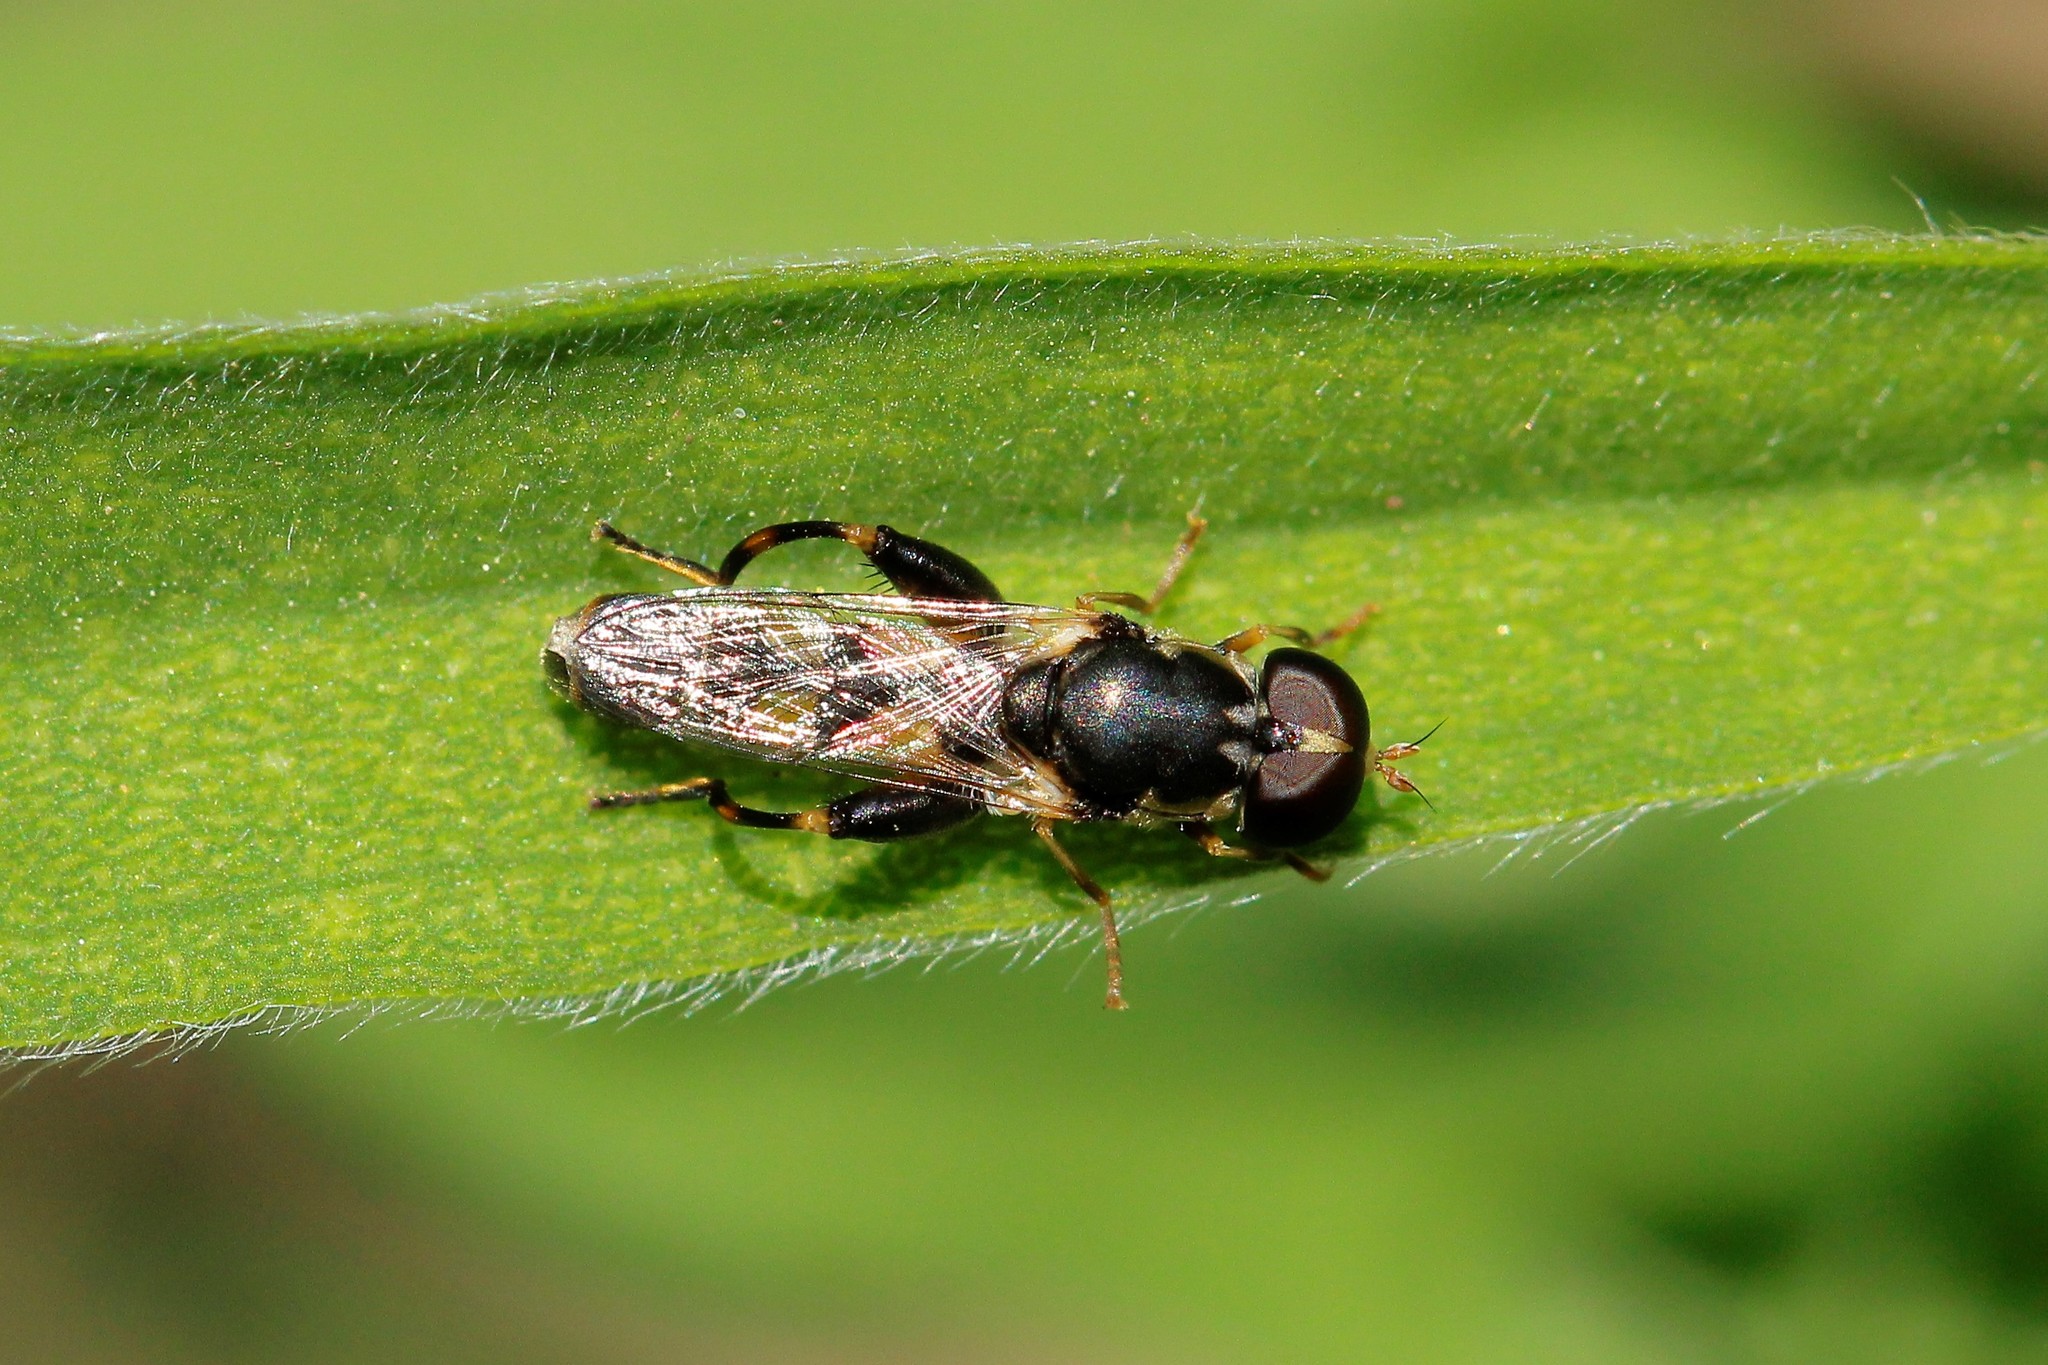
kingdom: Animalia
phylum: Arthropoda
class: Insecta
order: Diptera
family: Syrphidae
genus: Syritta
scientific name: Syritta pipiens
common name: Hover fly
